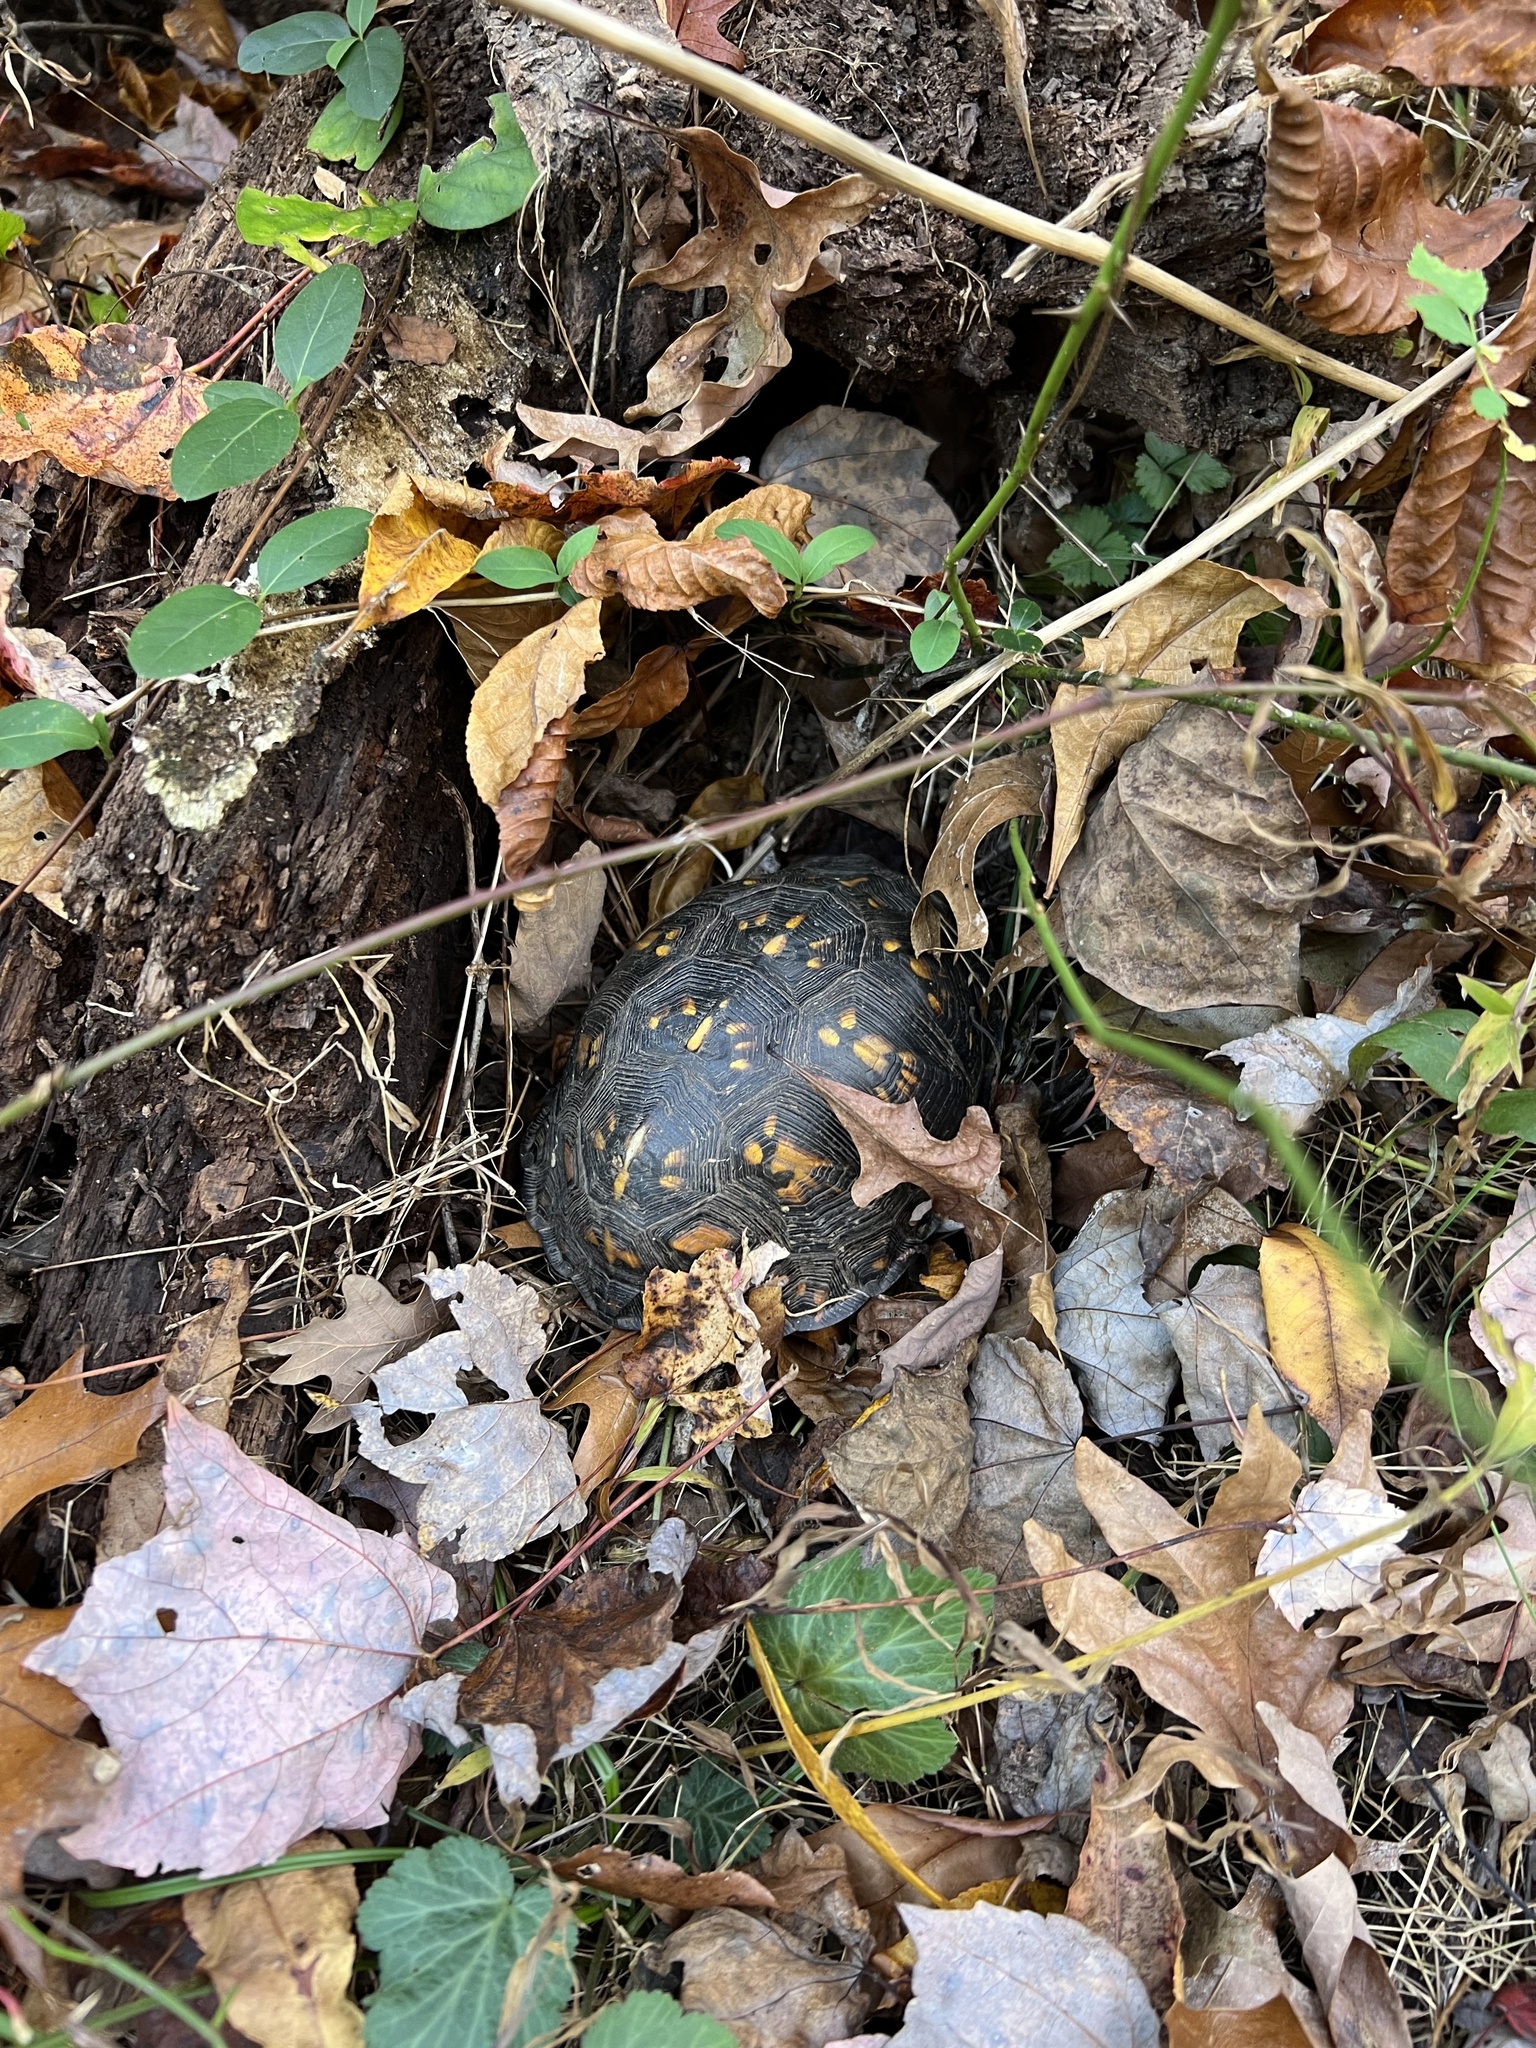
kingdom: Animalia
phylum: Chordata
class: Testudines
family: Emydidae
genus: Terrapene
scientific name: Terrapene carolina
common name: Common box turtle
